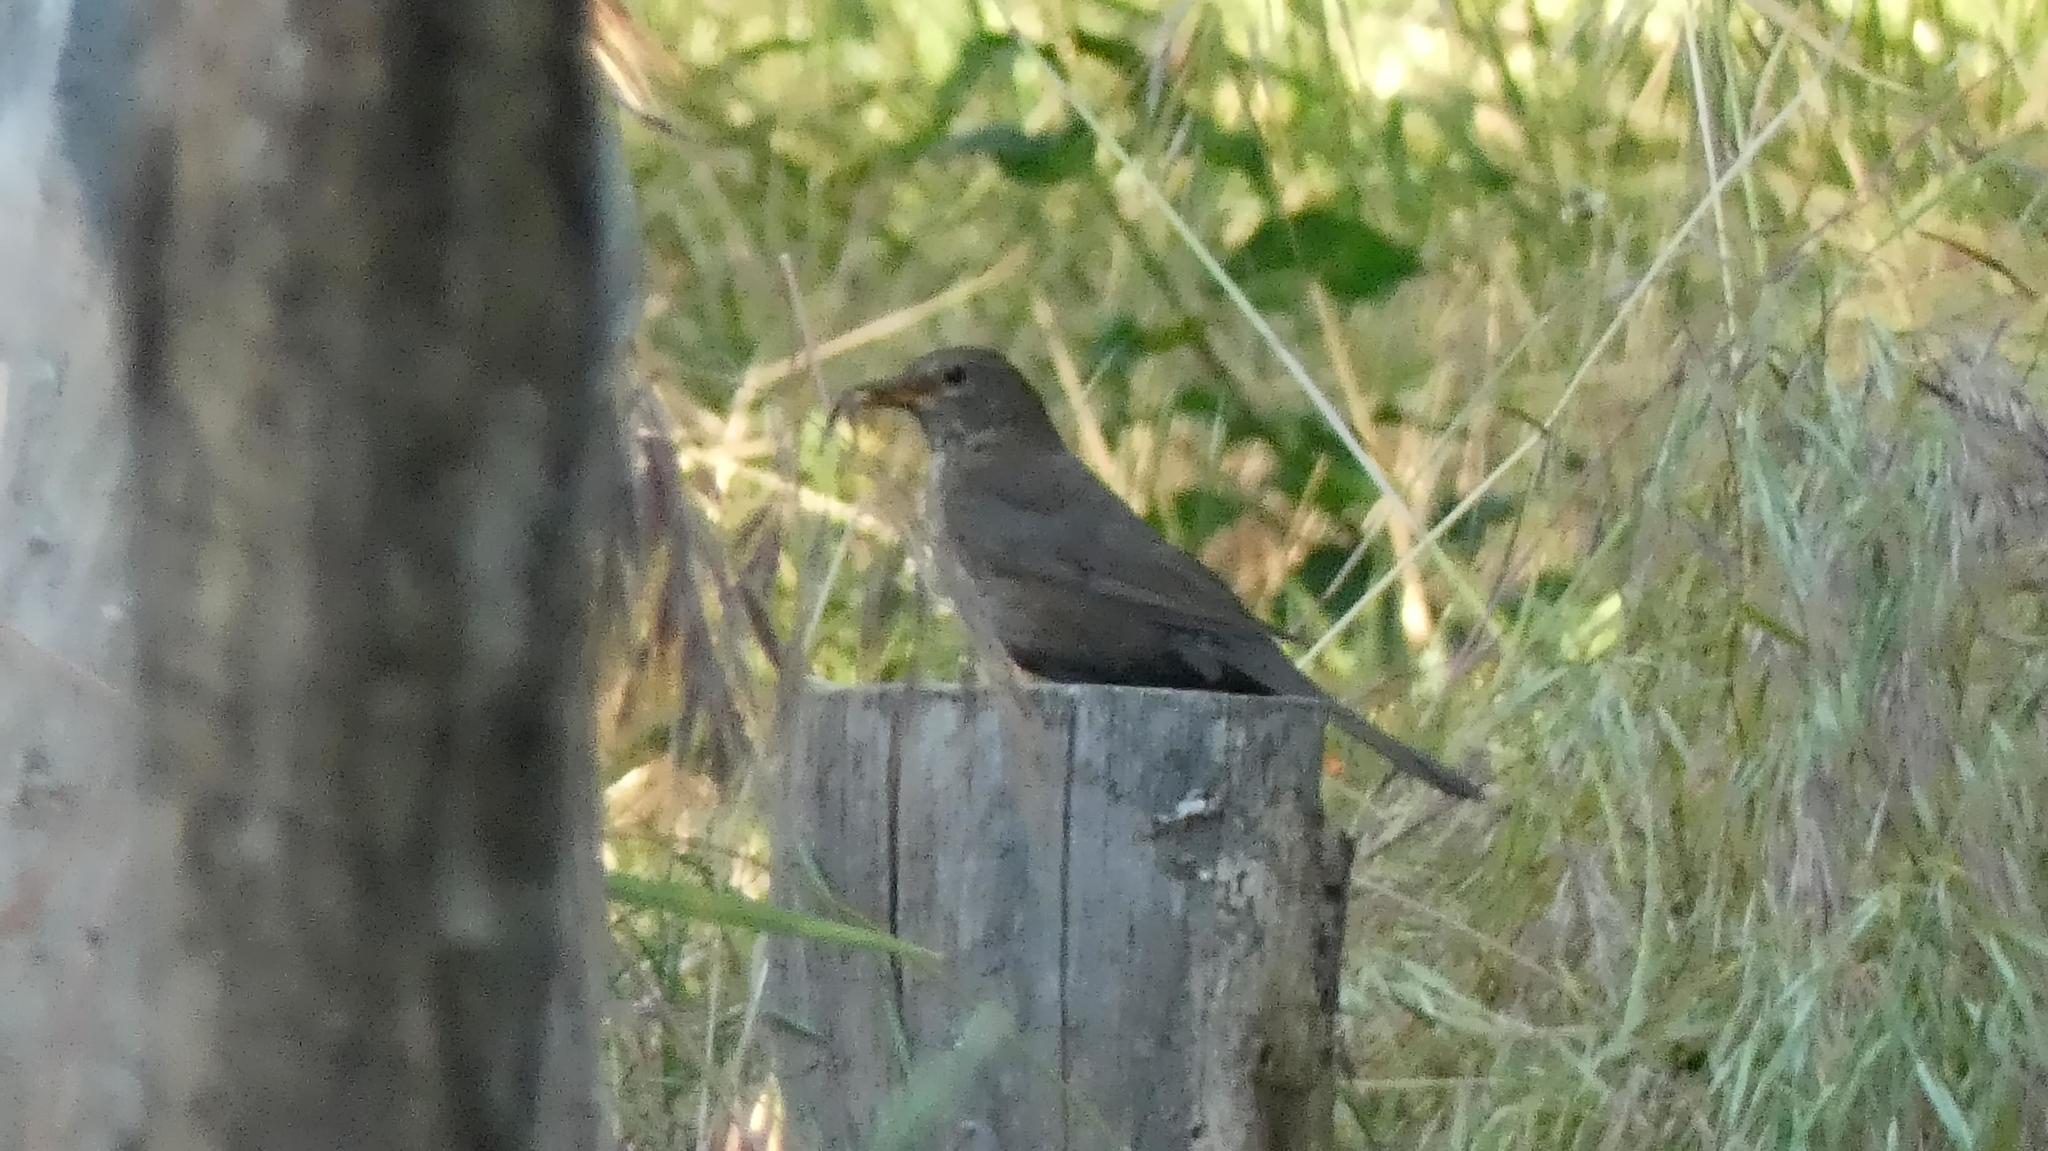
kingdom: Animalia
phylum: Chordata
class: Aves
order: Passeriformes
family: Turdidae
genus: Turdus
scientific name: Turdus merula
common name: Common blackbird
